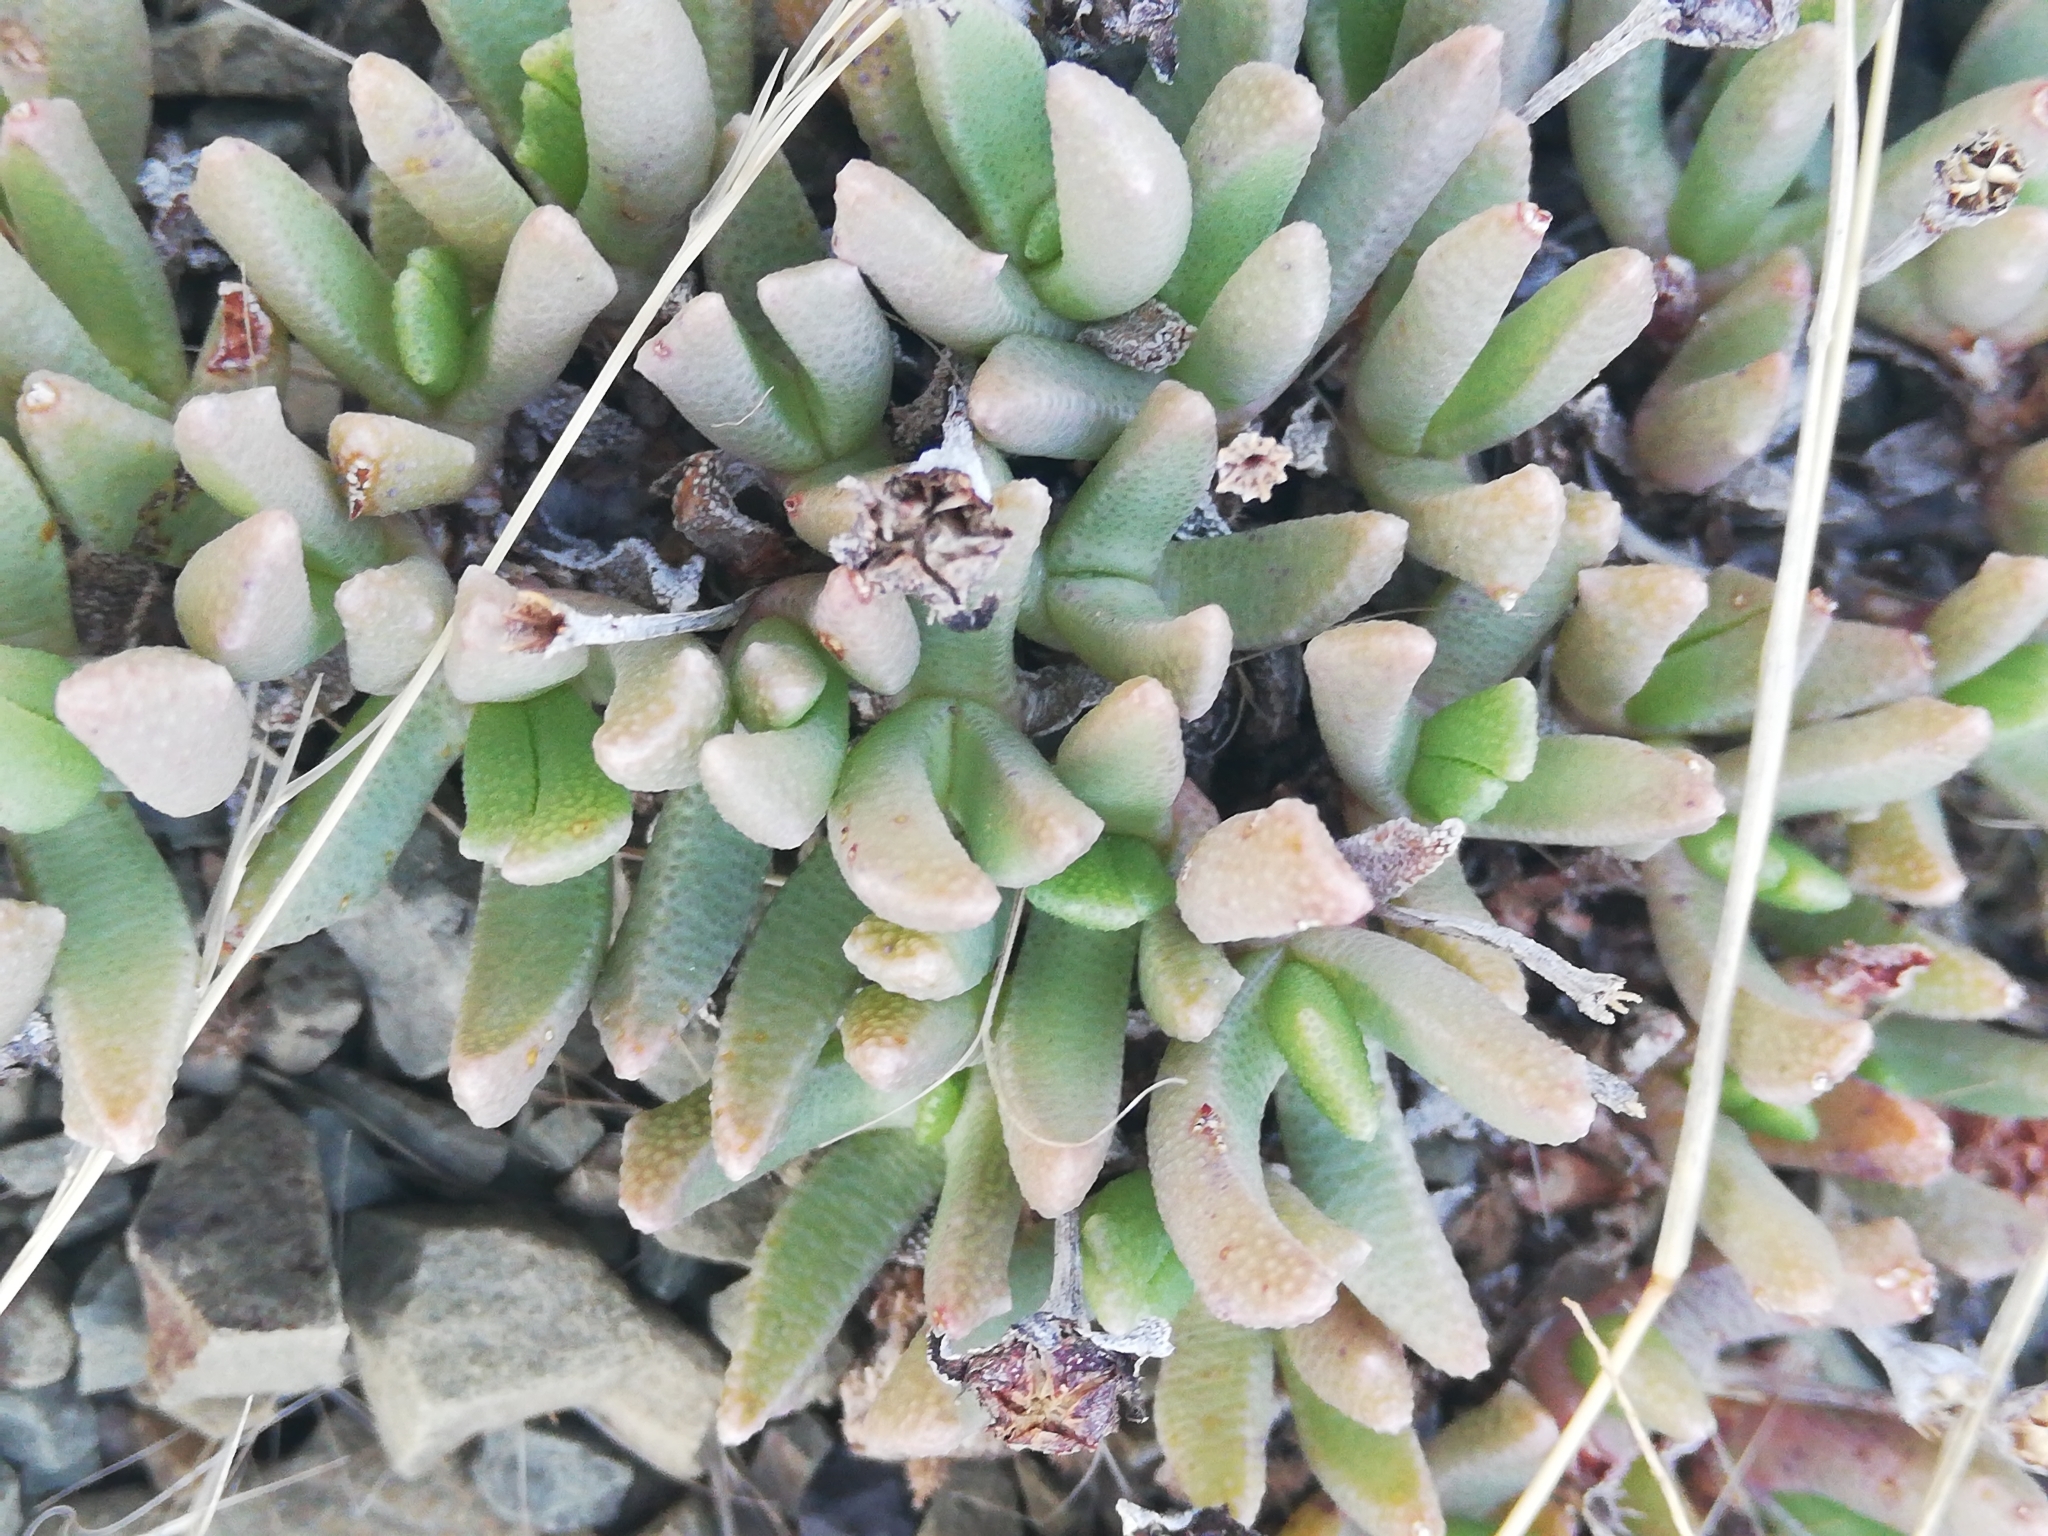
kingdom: Plantae
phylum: Tracheophyta
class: Magnoliopsida
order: Caryophyllales
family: Aizoaceae
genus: Dracophilus
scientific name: Dracophilus Chasmatophyllum musculinum
